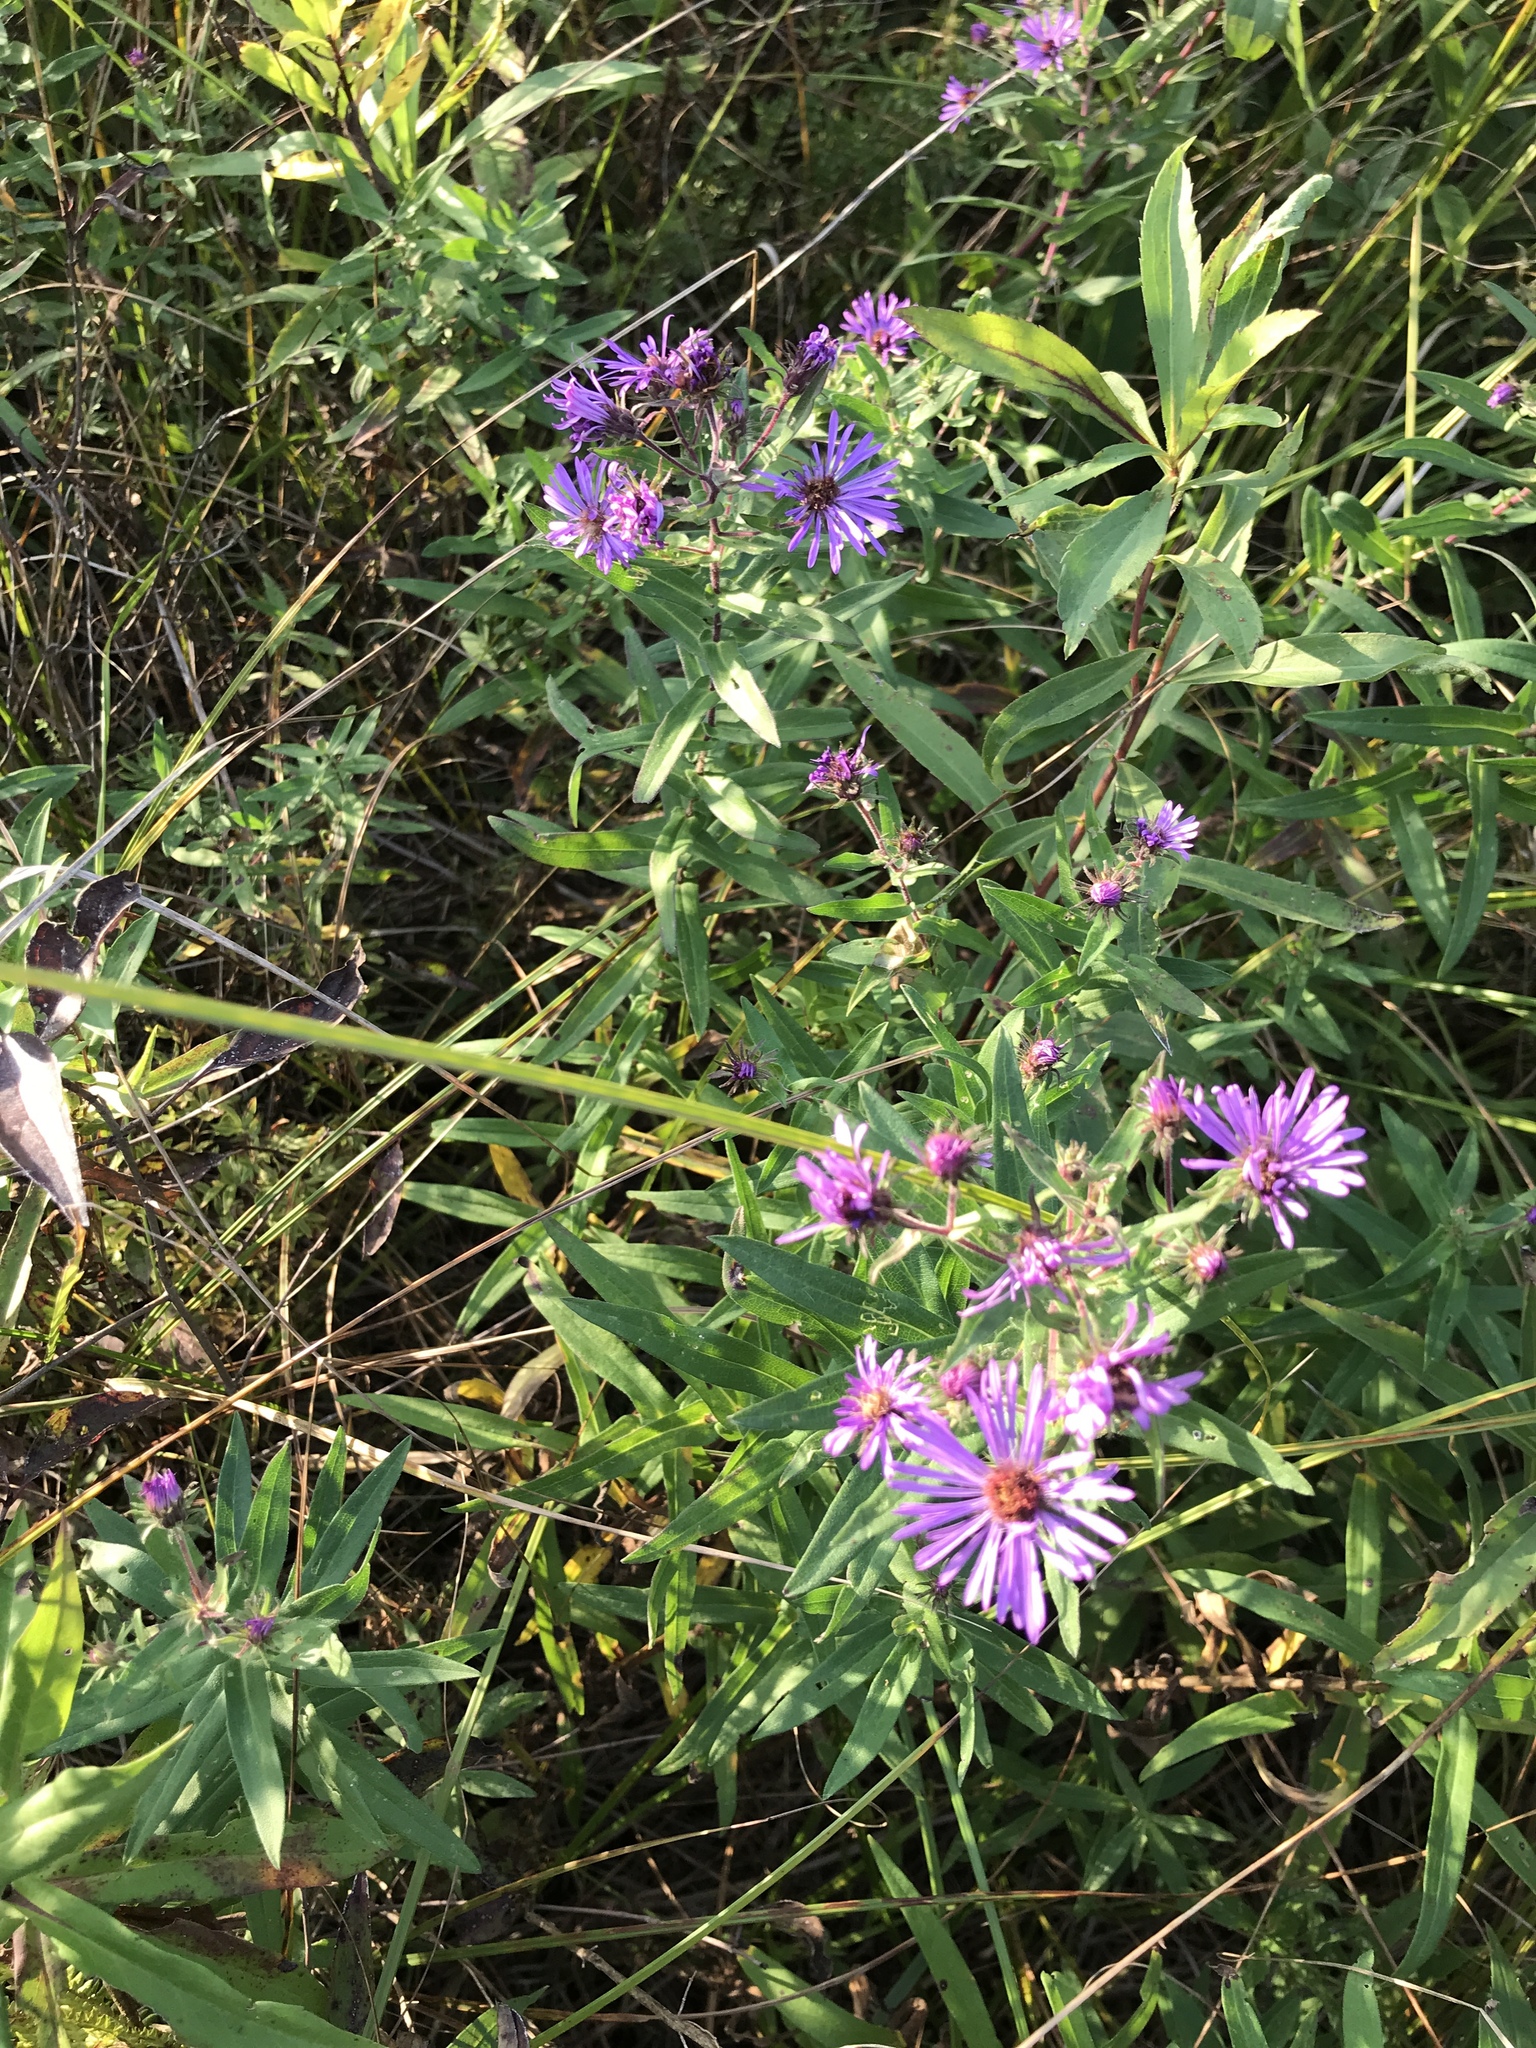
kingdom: Plantae
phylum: Tracheophyta
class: Magnoliopsida
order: Asterales
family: Asteraceae
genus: Symphyotrichum
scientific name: Symphyotrichum novae-angliae
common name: Michaelmas daisy
